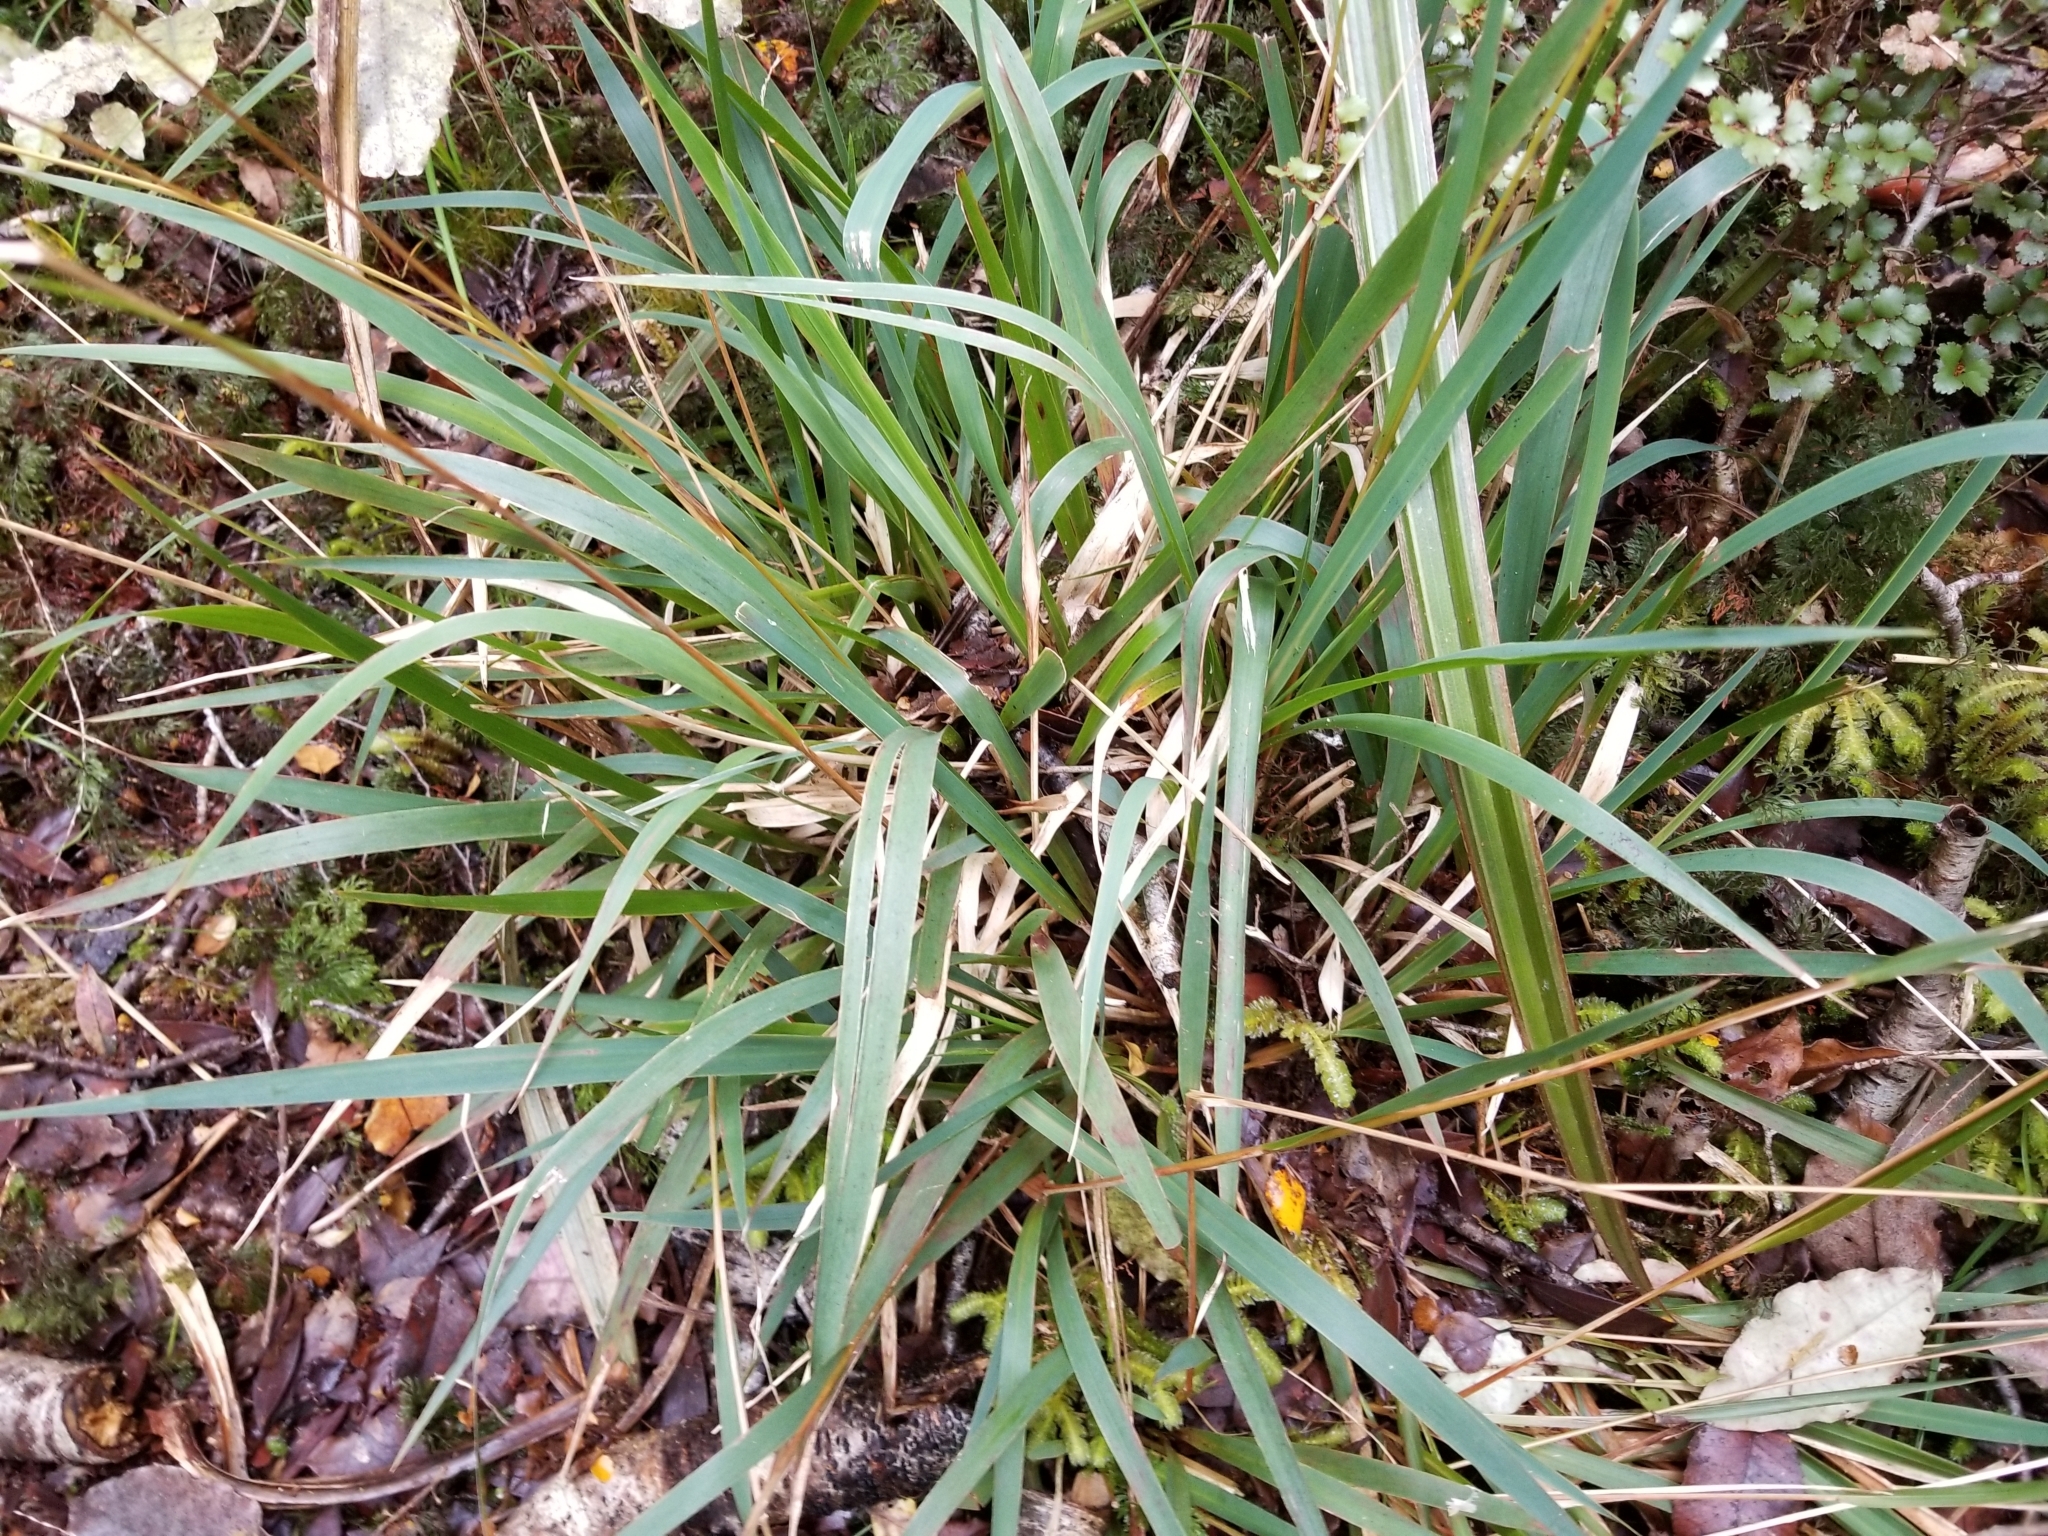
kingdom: Plantae
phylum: Tracheophyta
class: Liliopsida
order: Poales
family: Poaceae
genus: Ehrharta
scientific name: Ehrharta diplax
